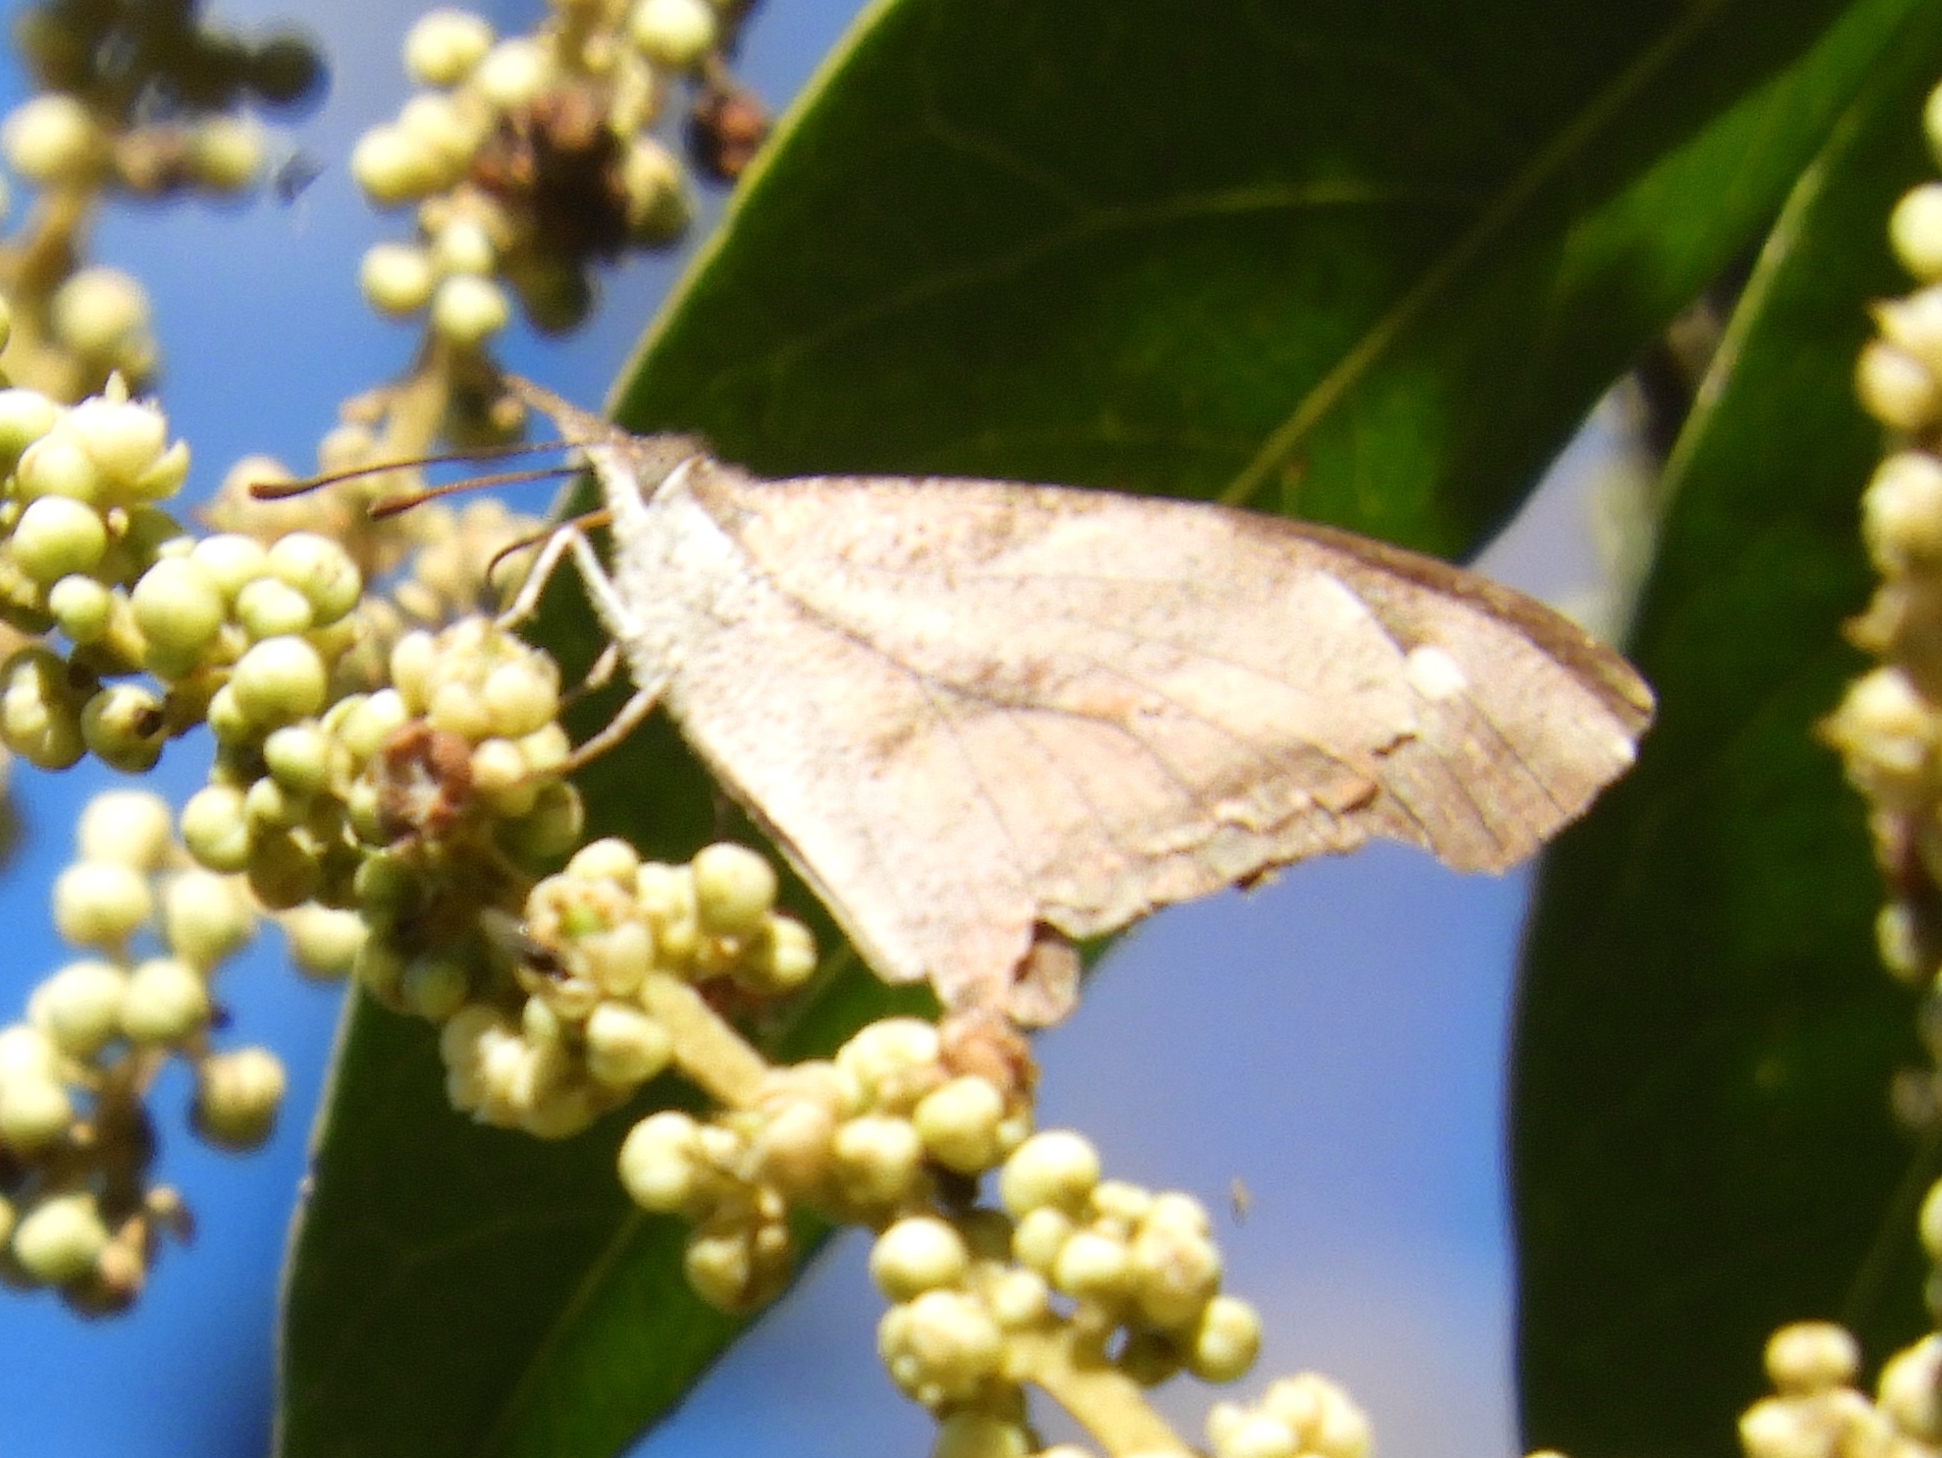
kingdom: Animalia
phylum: Arthropoda
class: Insecta
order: Lepidoptera
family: Nymphalidae
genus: Libytheana
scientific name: Libytheana carinenta
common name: American snout
